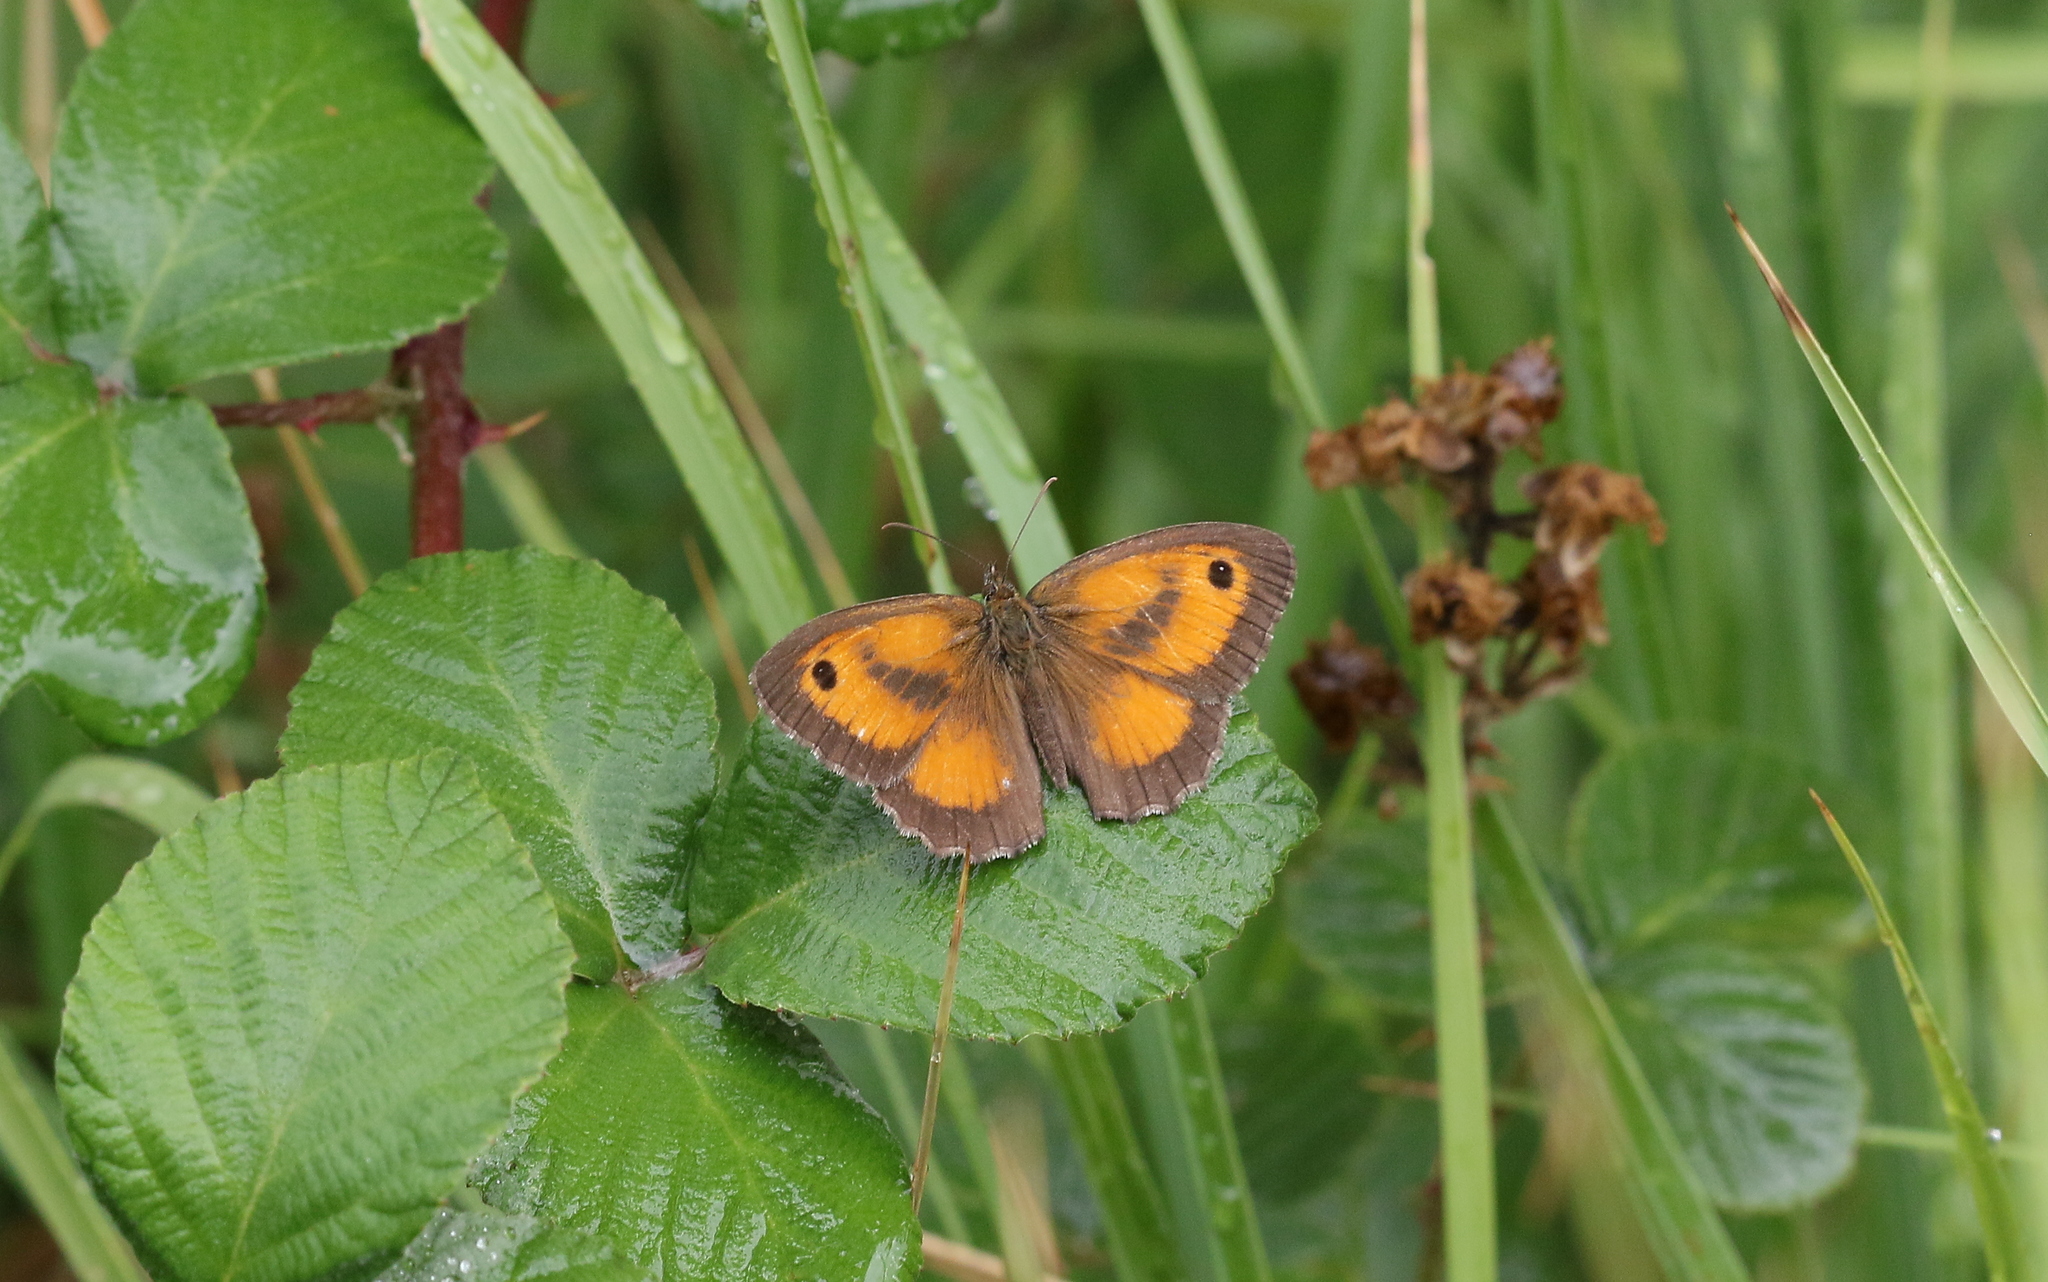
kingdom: Animalia
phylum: Arthropoda
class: Insecta
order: Lepidoptera
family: Nymphalidae
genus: Pyronia
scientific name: Pyronia tithonus
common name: Gatekeeper
